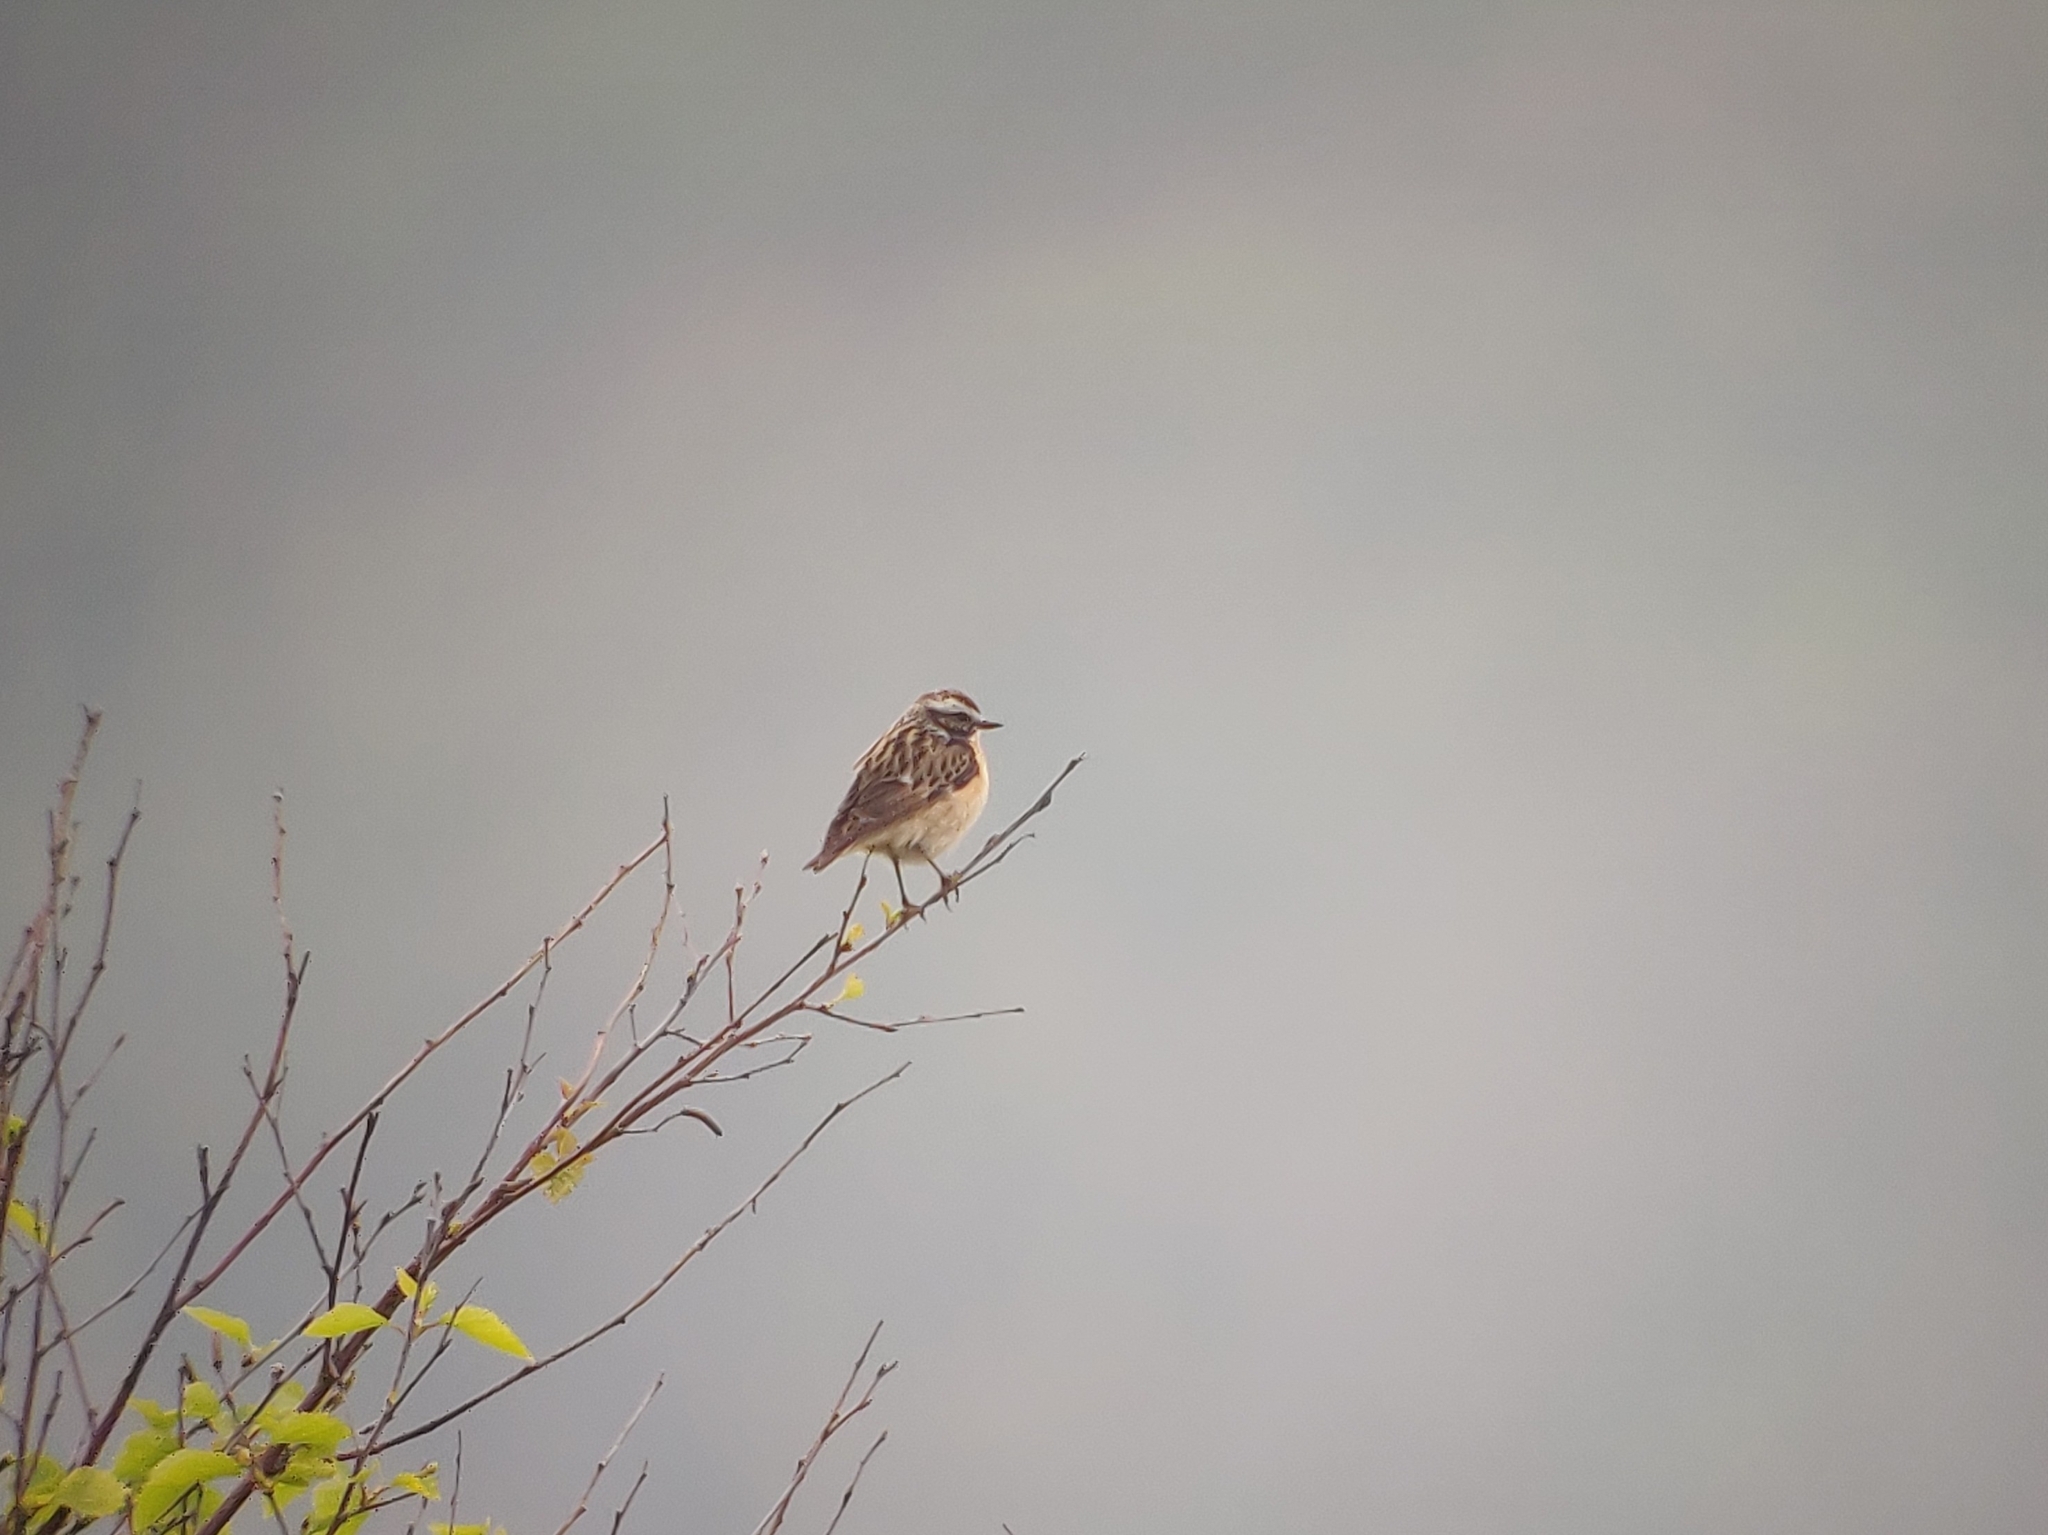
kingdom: Animalia
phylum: Chordata
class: Aves
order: Passeriformes
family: Muscicapidae
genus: Saxicola
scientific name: Saxicola rubetra
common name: Whinchat
